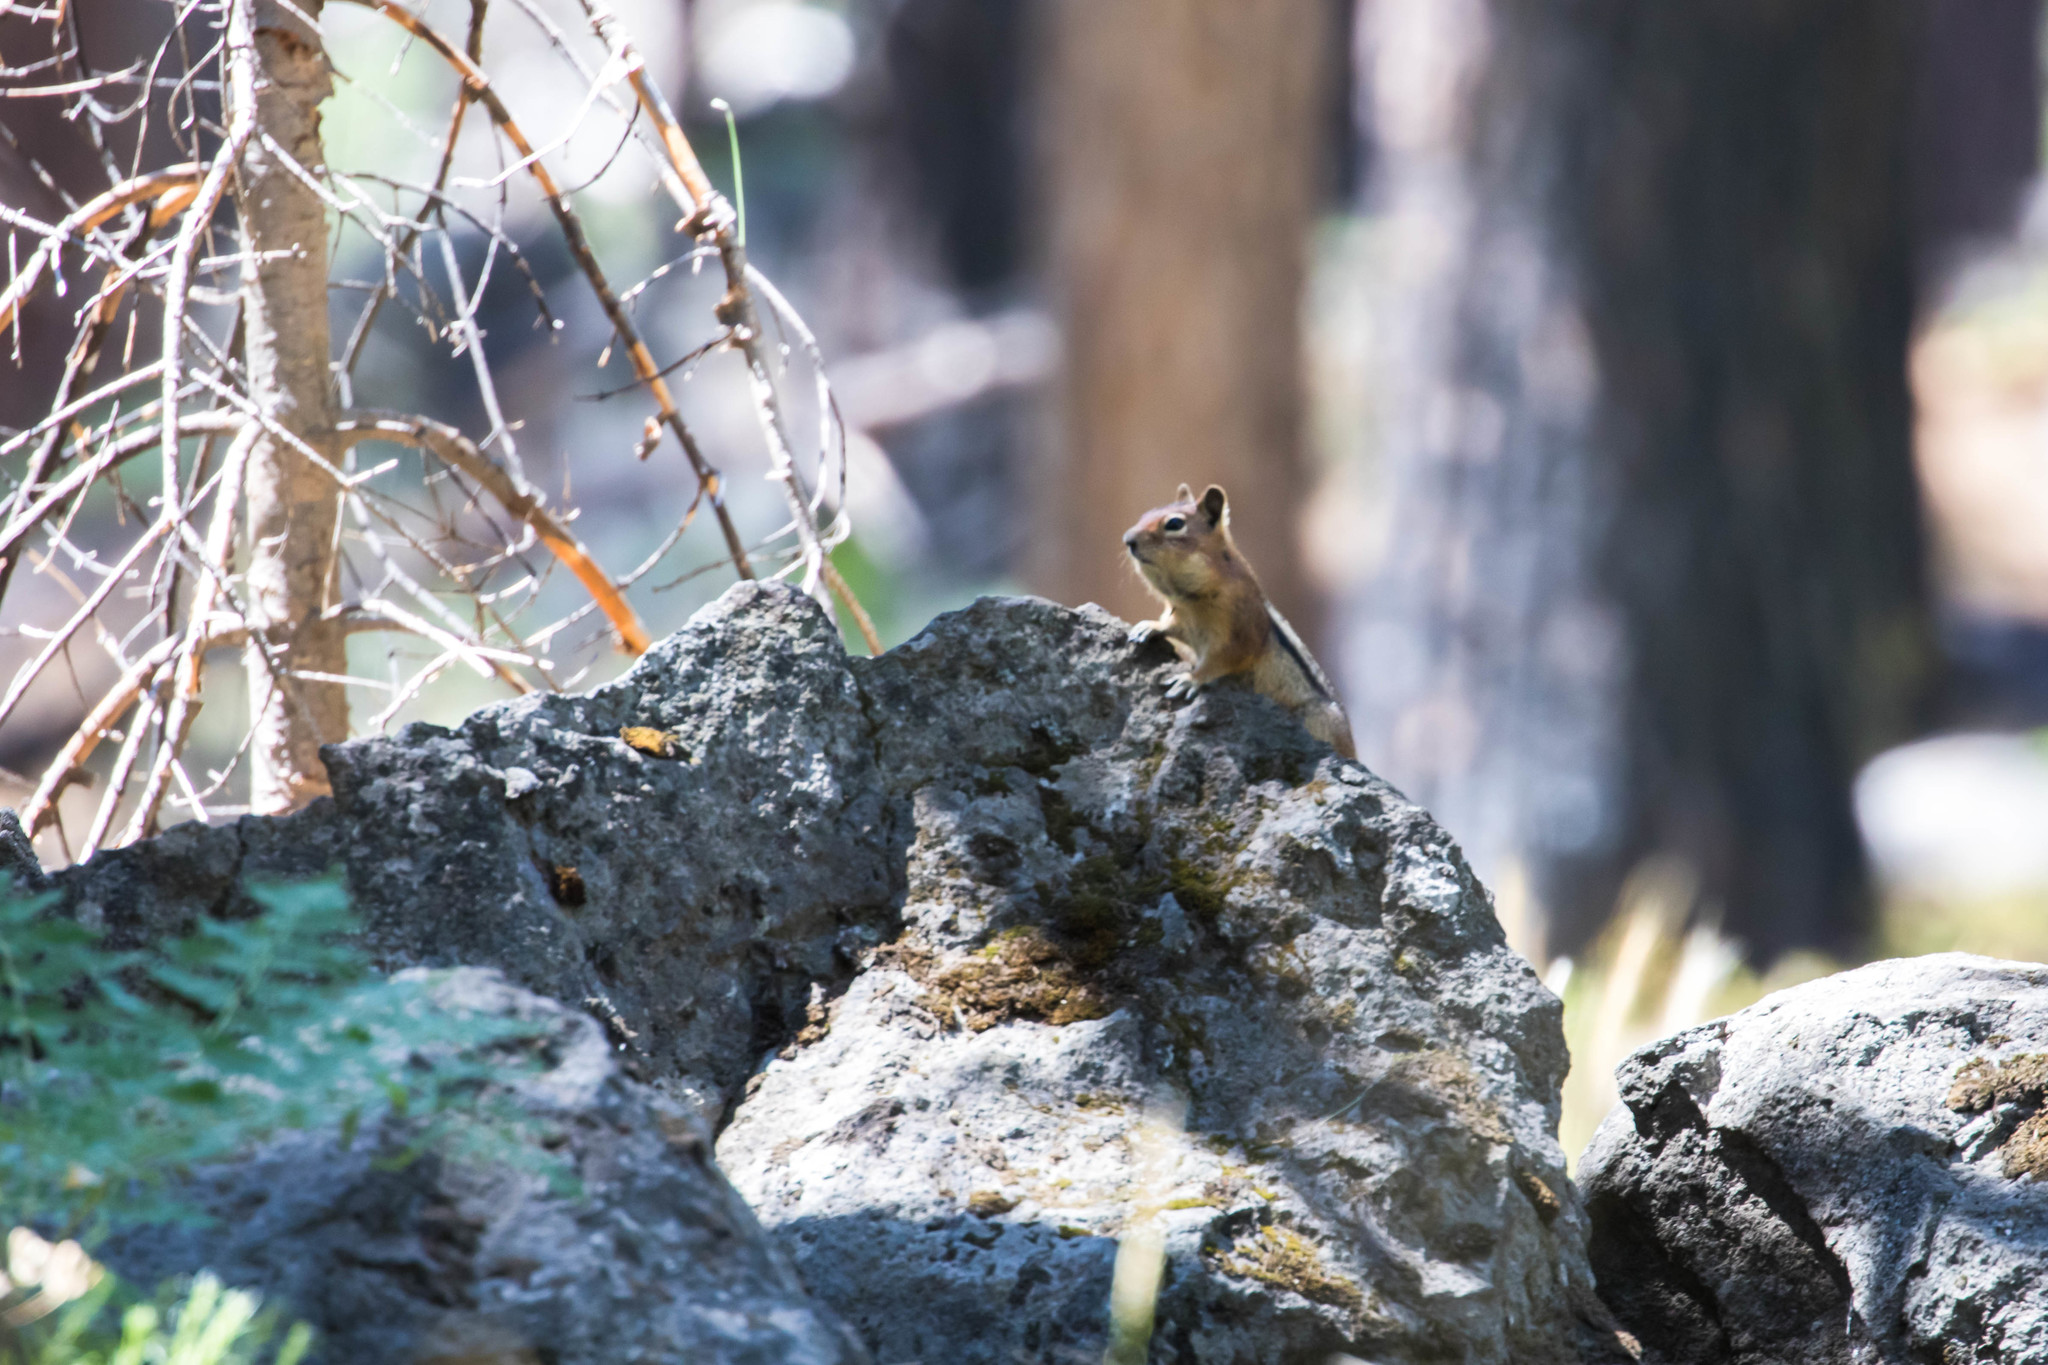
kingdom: Animalia
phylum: Chordata
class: Mammalia
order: Rodentia
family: Sciuridae
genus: Callospermophilus
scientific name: Callospermophilus saturatus
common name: Cascade golden-mantled ground squirrel
